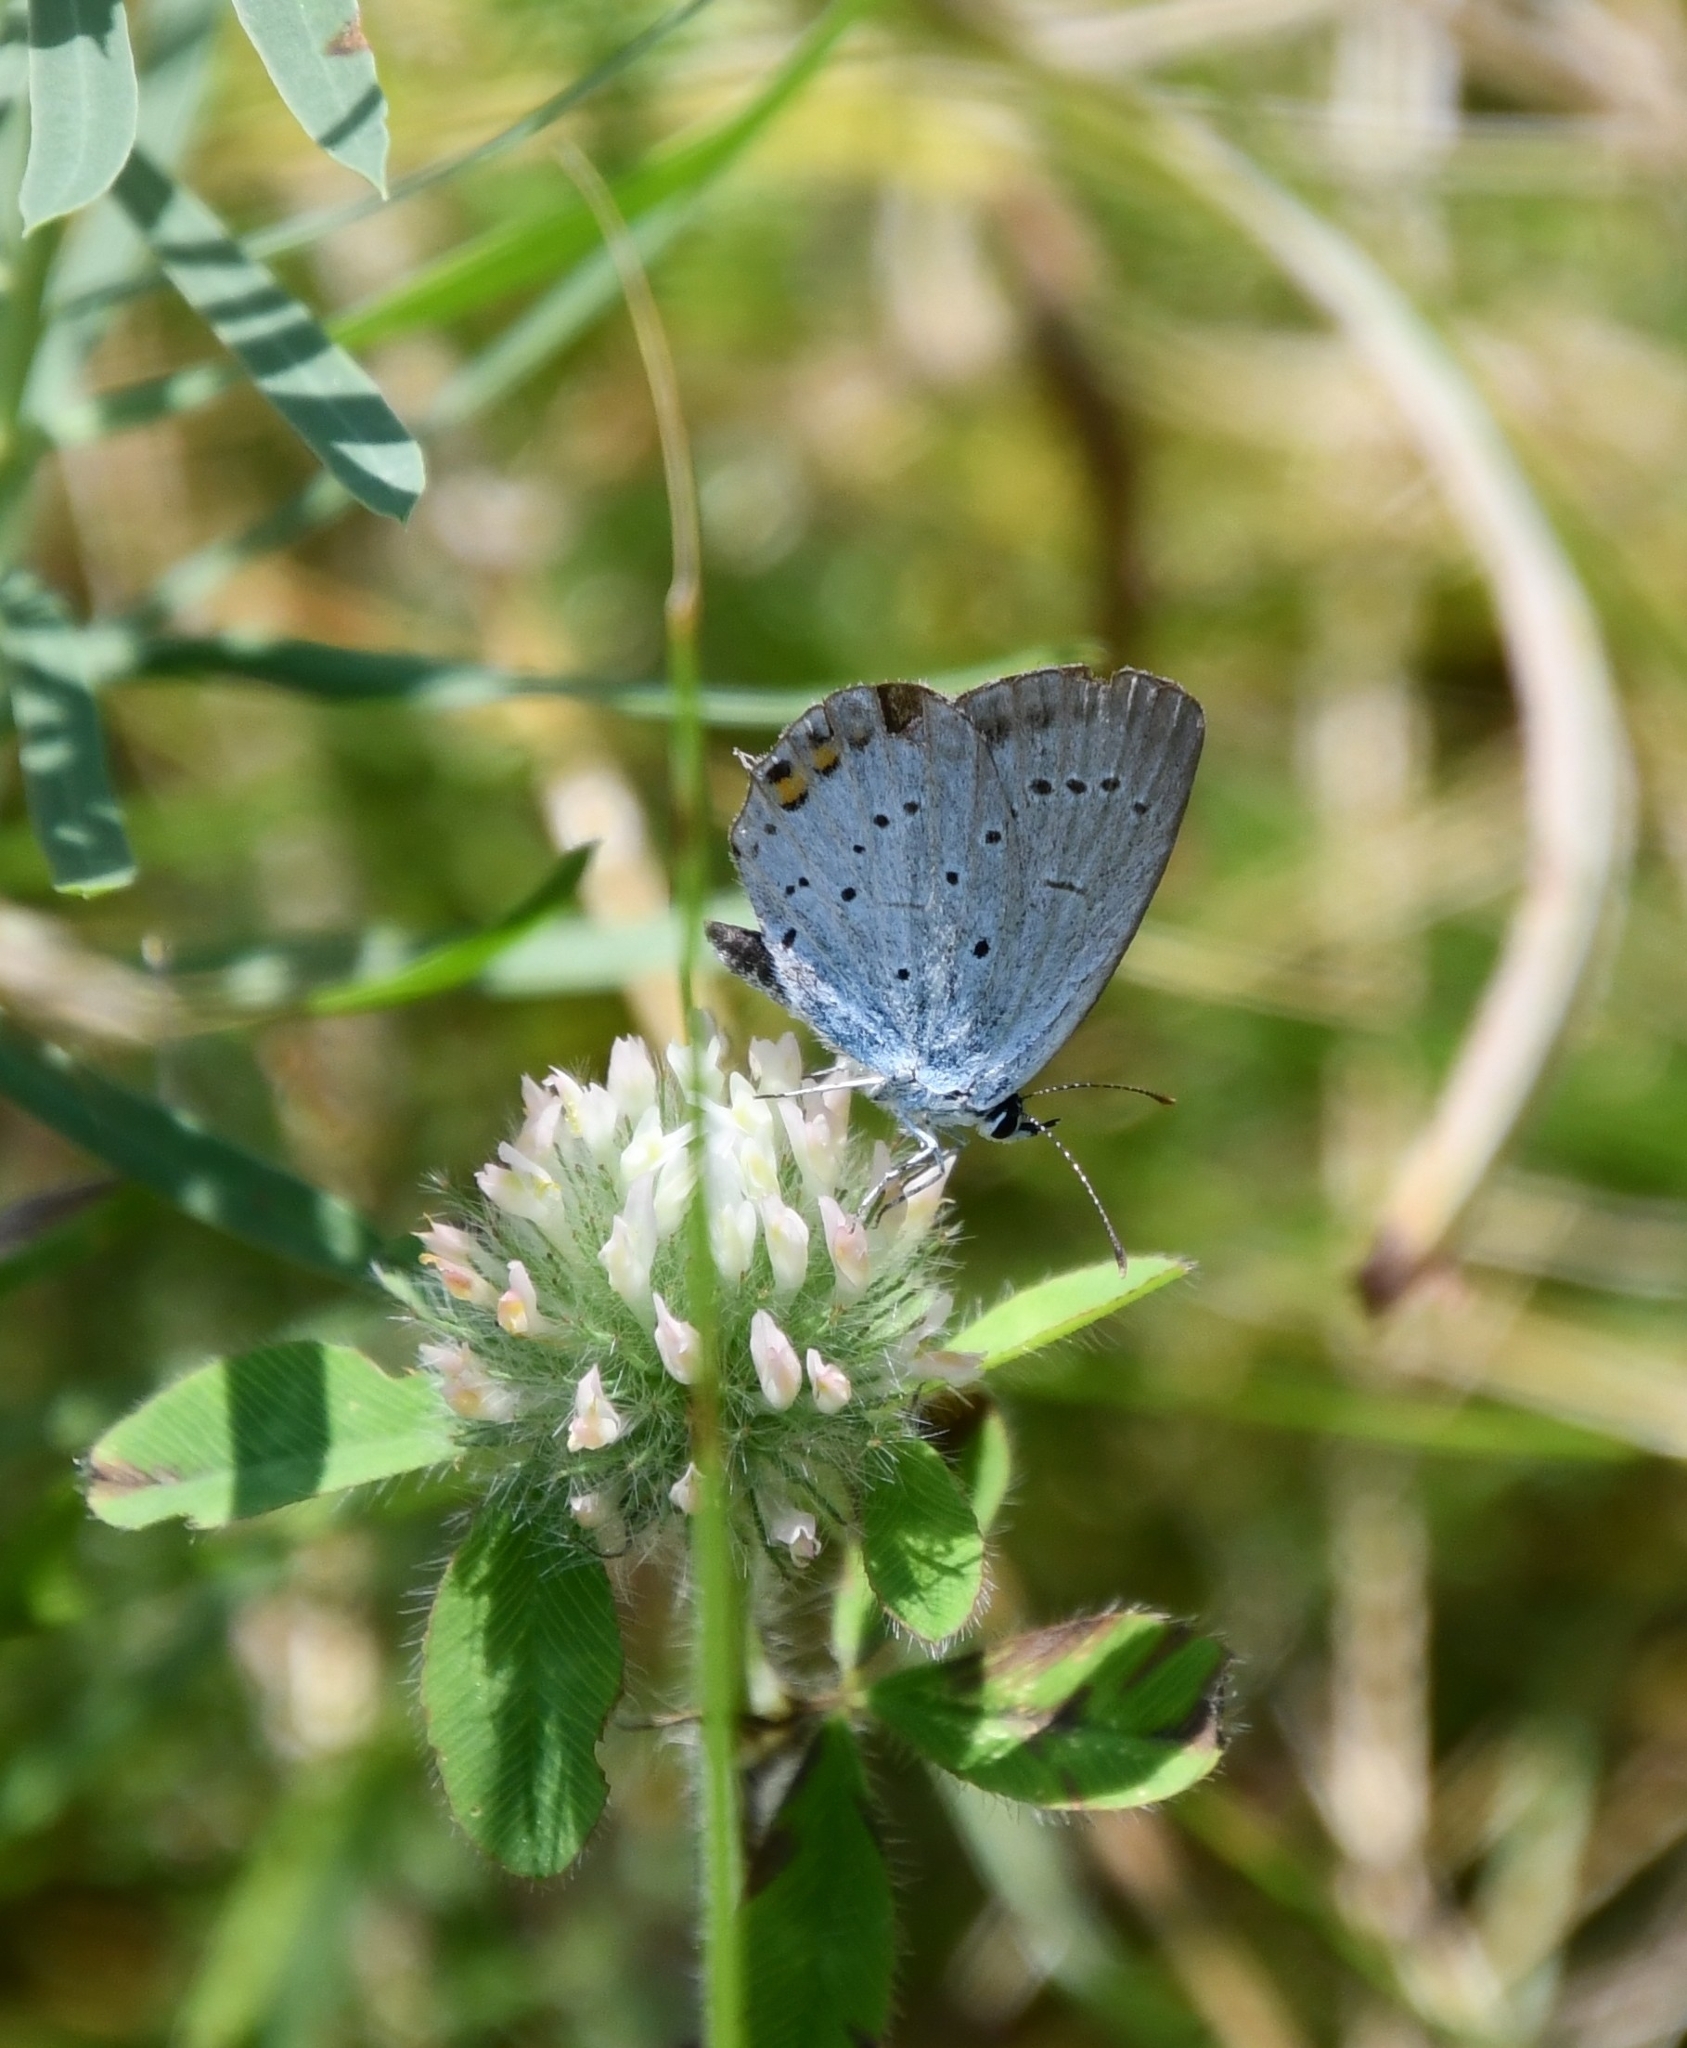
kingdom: Animalia
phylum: Arthropoda
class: Insecta
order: Lepidoptera
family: Lycaenidae
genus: Elkalyce
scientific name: Elkalyce argiades
